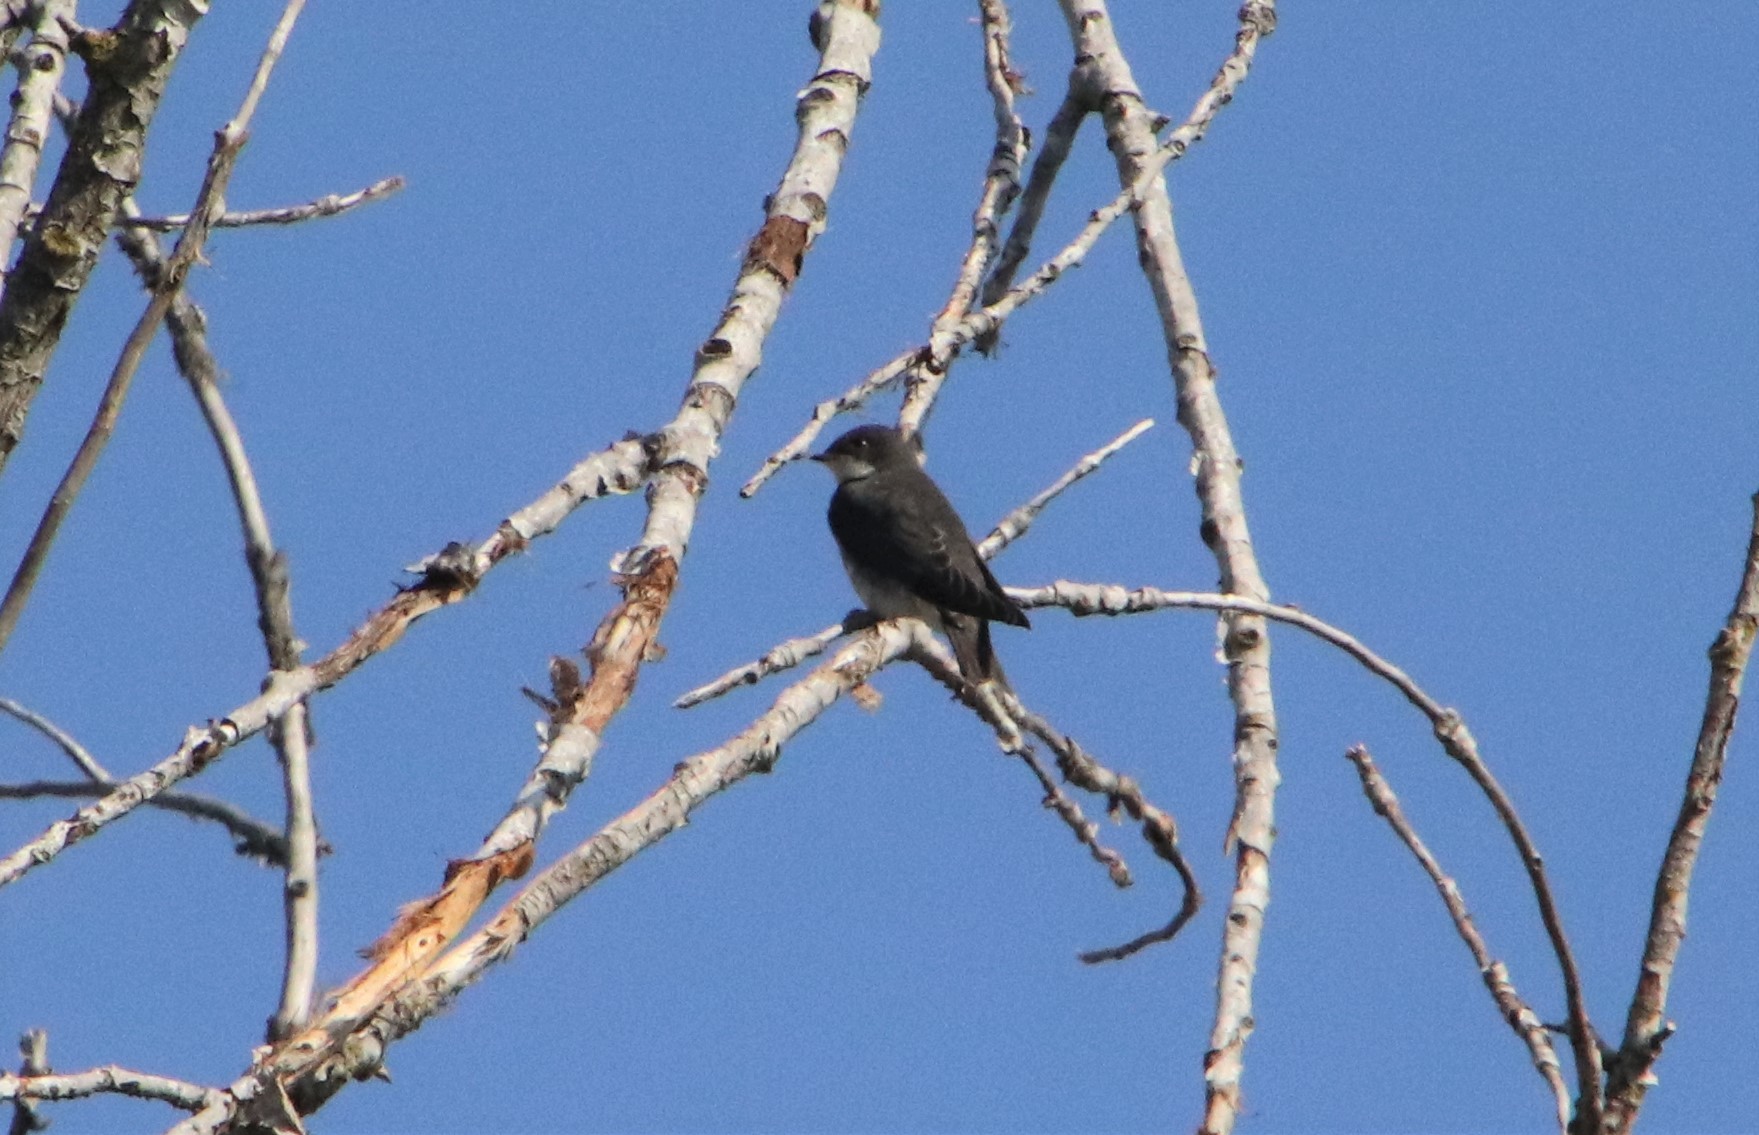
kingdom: Animalia
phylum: Chordata
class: Aves
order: Passeriformes
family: Hirundinidae
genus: Tachycineta
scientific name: Tachycineta bicolor
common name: Tree swallow
